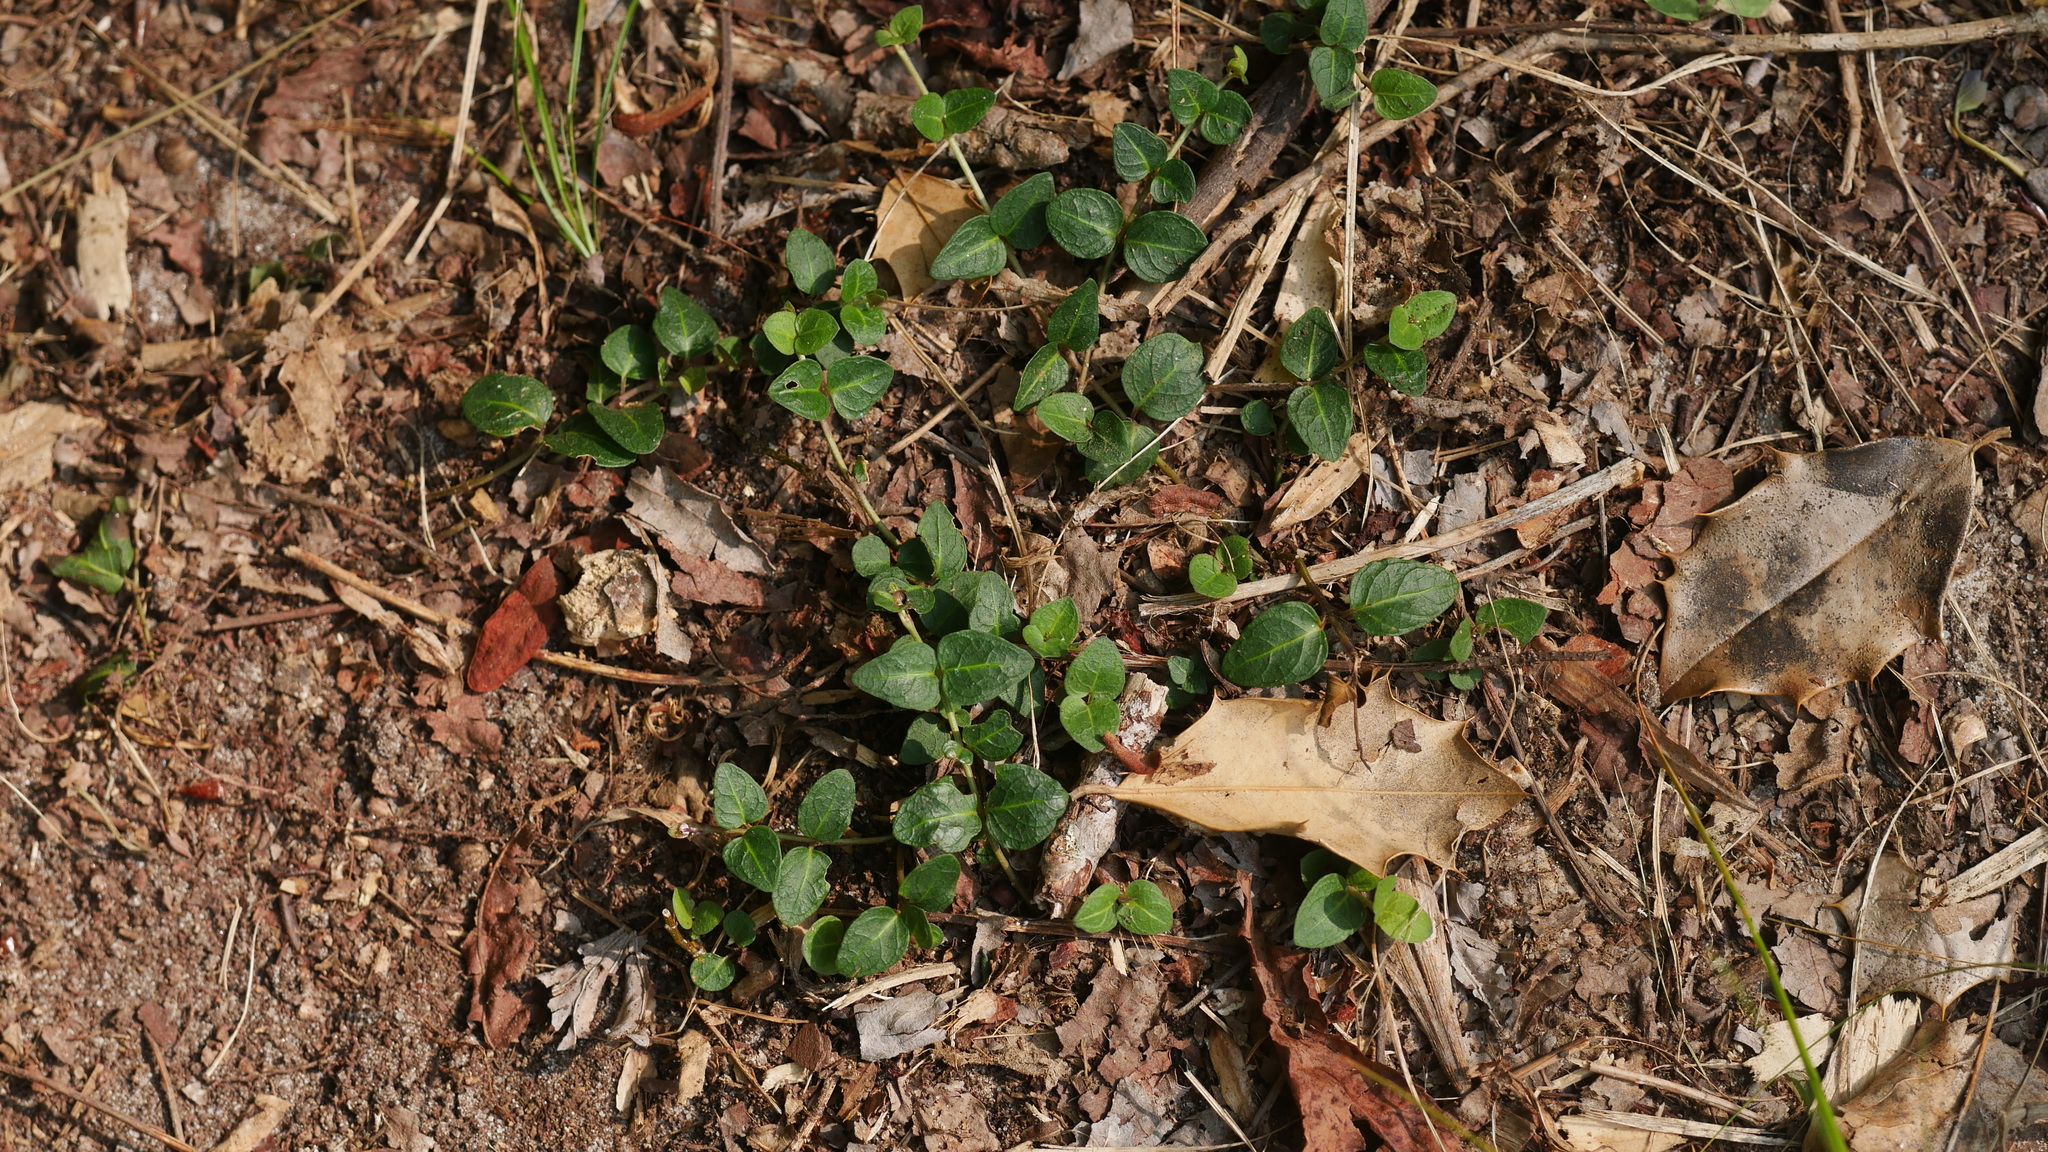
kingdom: Plantae
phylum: Tracheophyta
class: Magnoliopsida
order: Gentianales
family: Rubiaceae
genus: Mitchella
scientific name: Mitchella repens
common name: Partridge-berry
